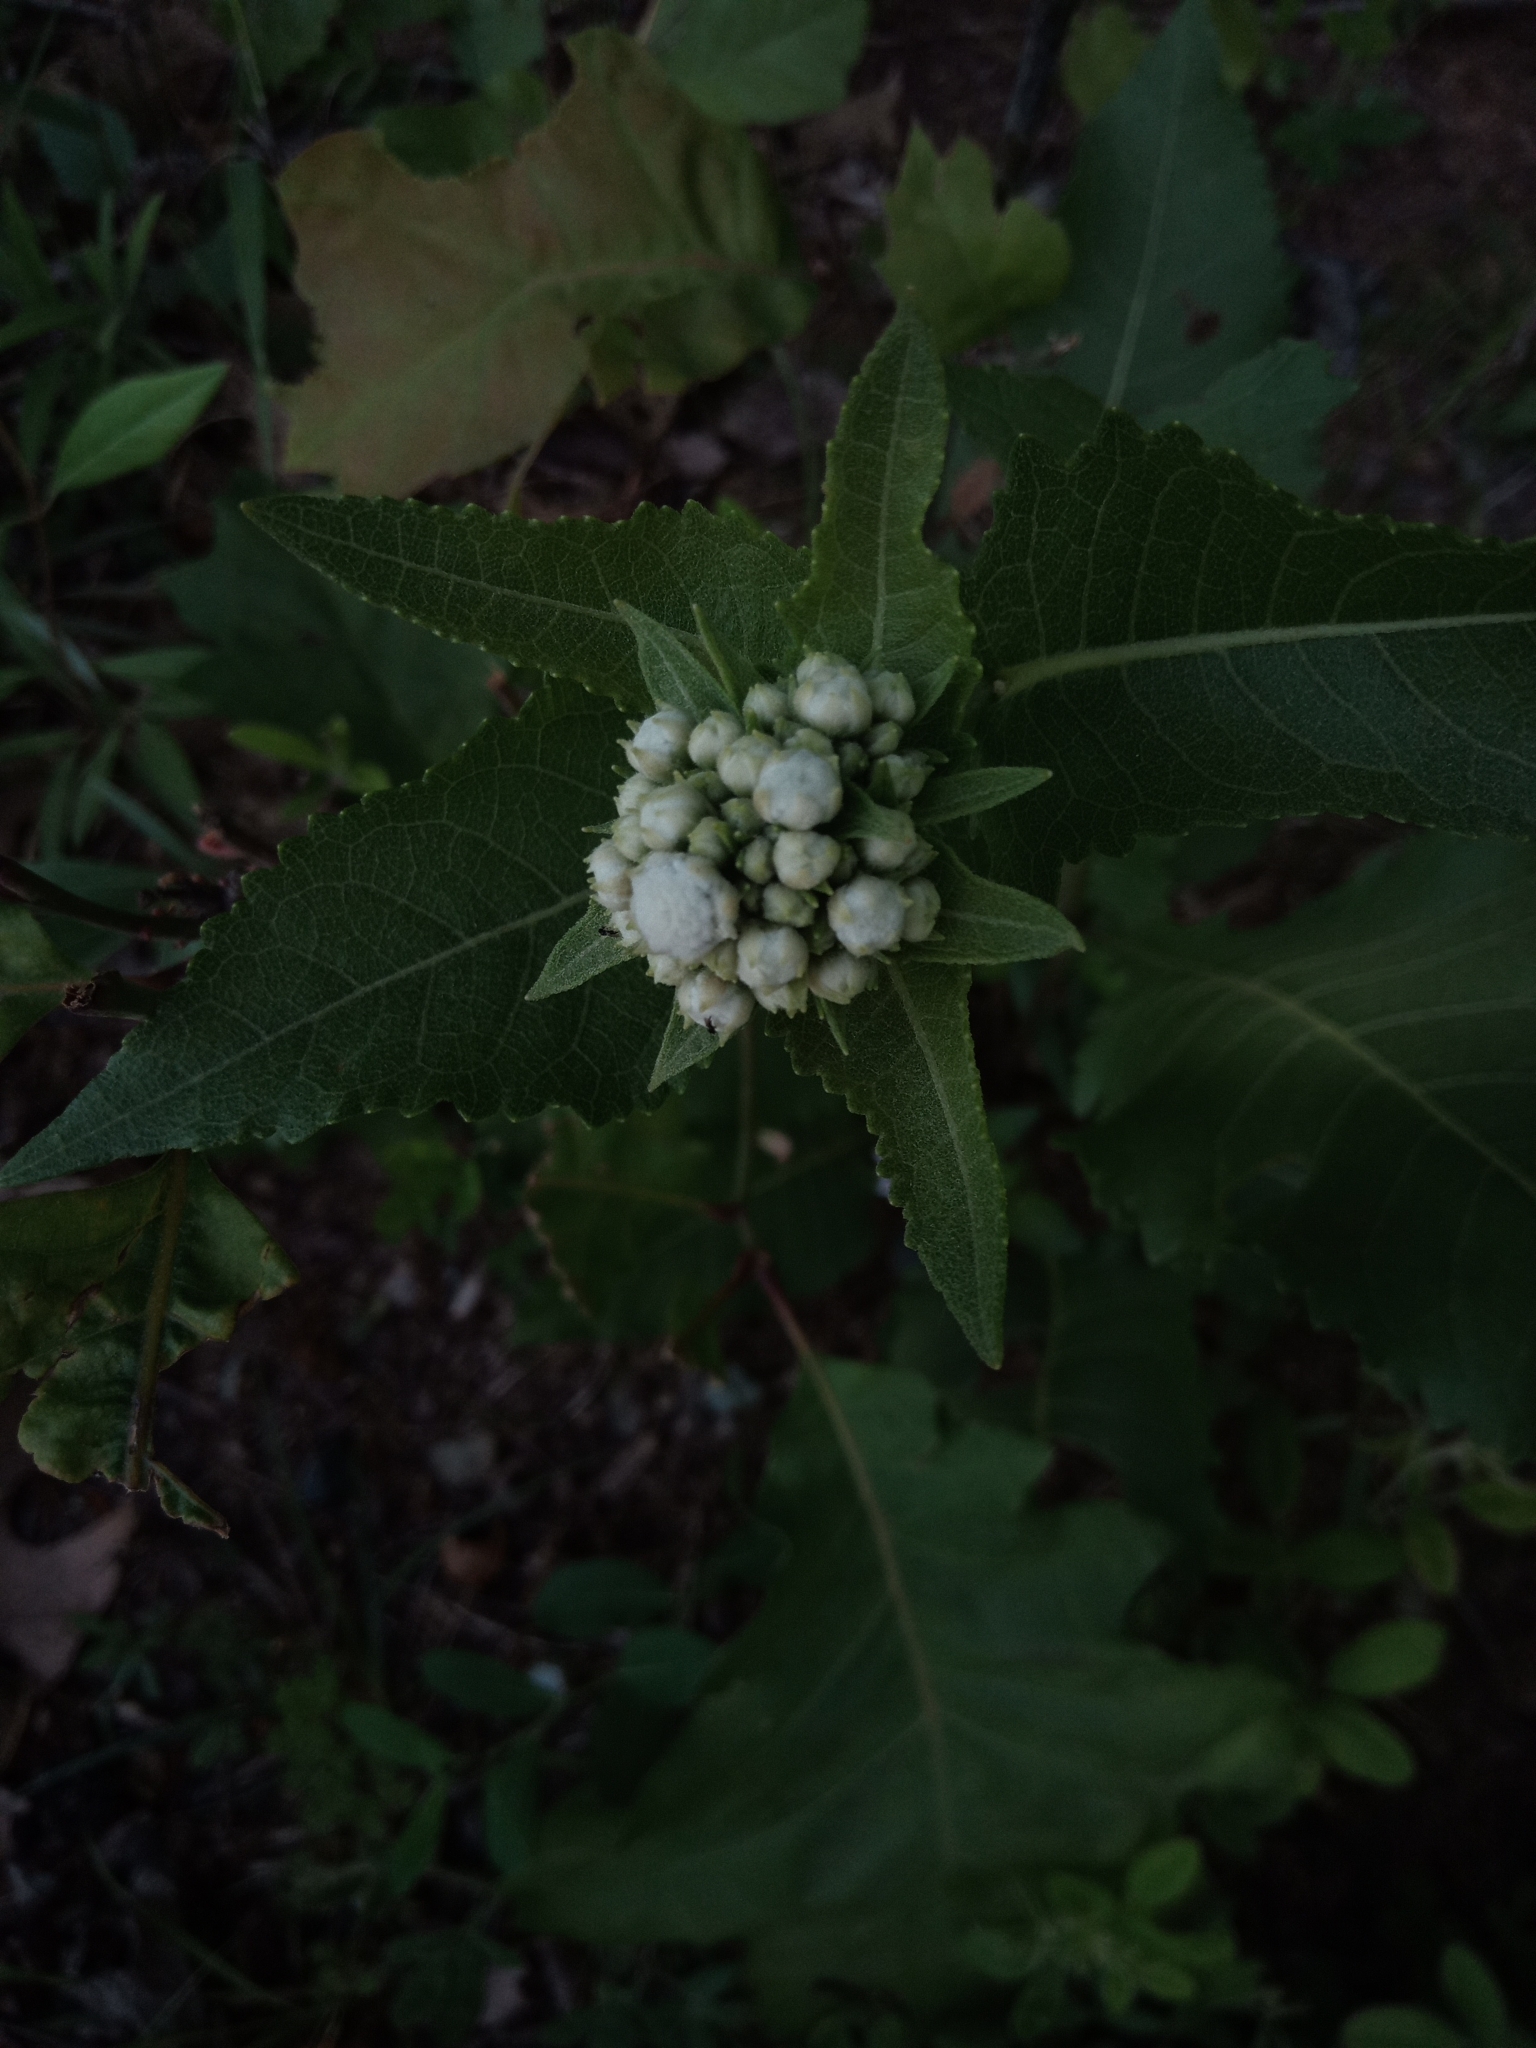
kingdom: Plantae
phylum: Tracheophyta
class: Magnoliopsida
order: Asterales
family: Asteraceae
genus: Parthenium
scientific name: Parthenium integrifolium
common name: American feverfew
